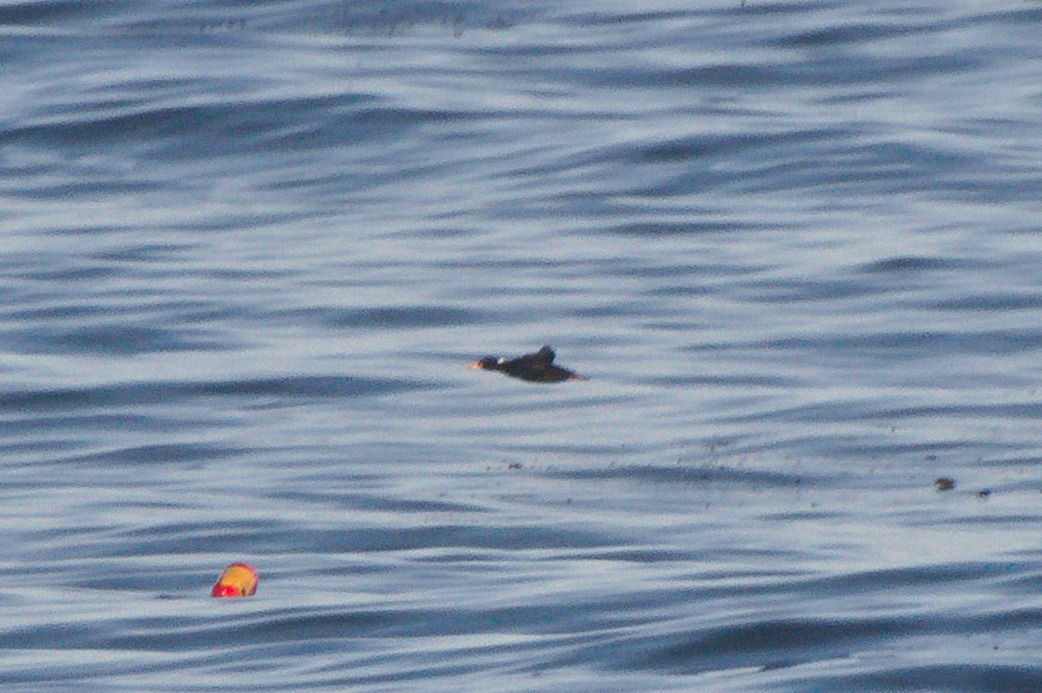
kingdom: Animalia
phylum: Chordata
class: Aves
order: Anseriformes
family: Anatidae
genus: Melanitta
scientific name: Melanitta perspicillata
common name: Surf scoter
